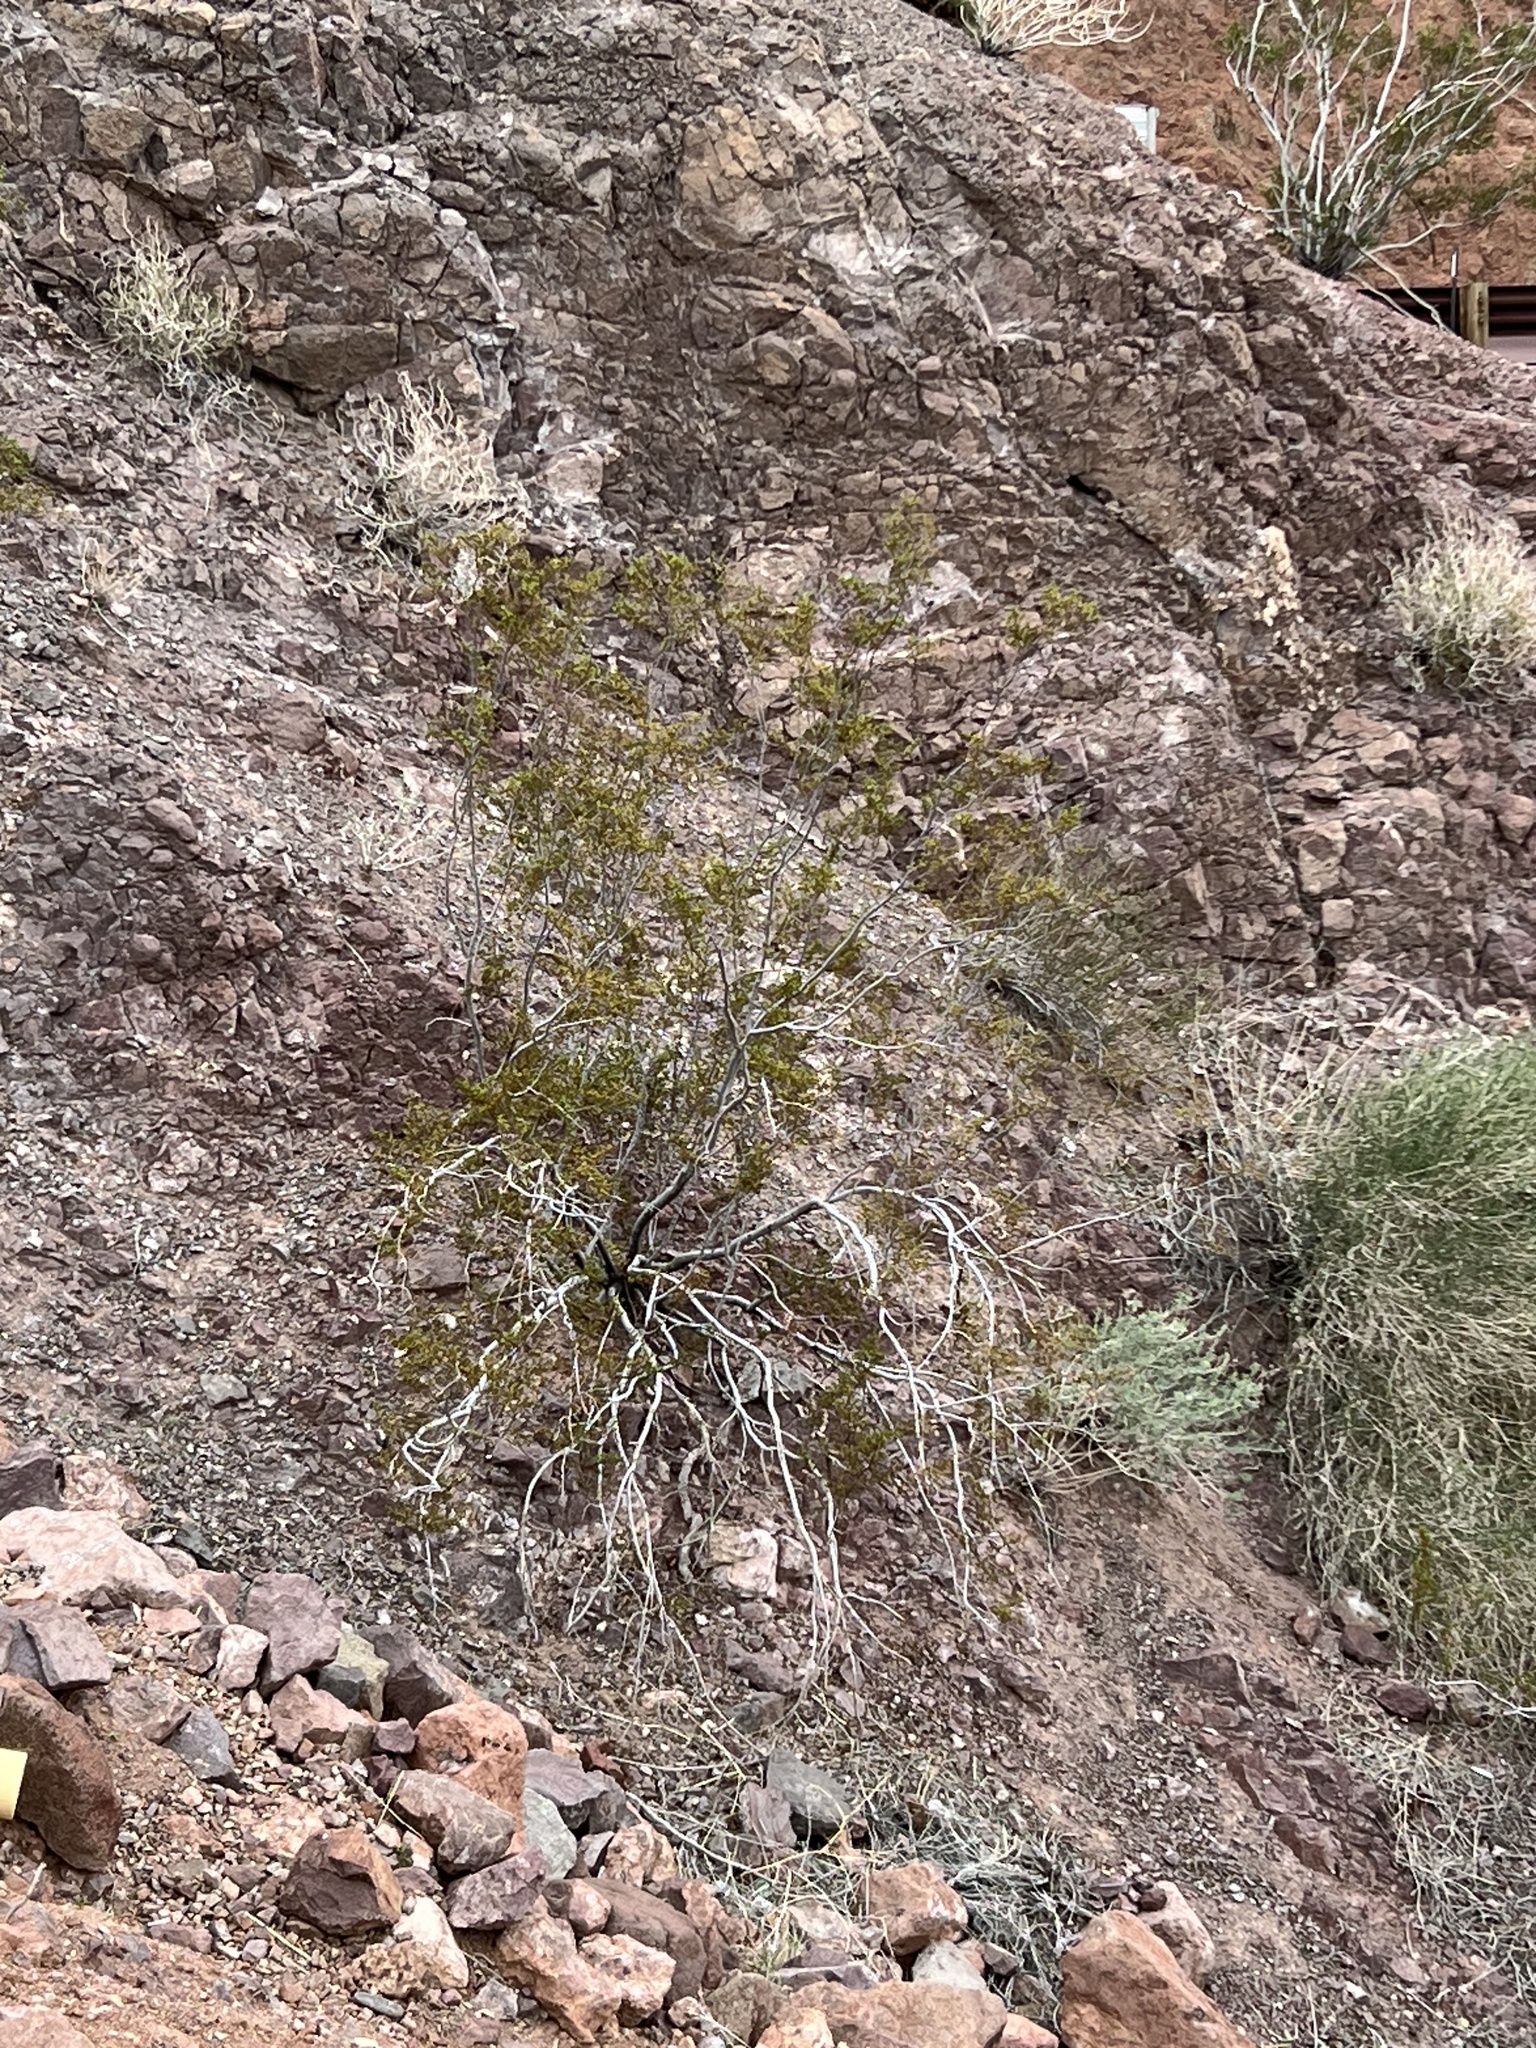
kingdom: Plantae
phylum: Tracheophyta
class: Magnoliopsida
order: Zygophyllales
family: Zygophyllaceae
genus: Larrea
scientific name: Larrea tridentata
